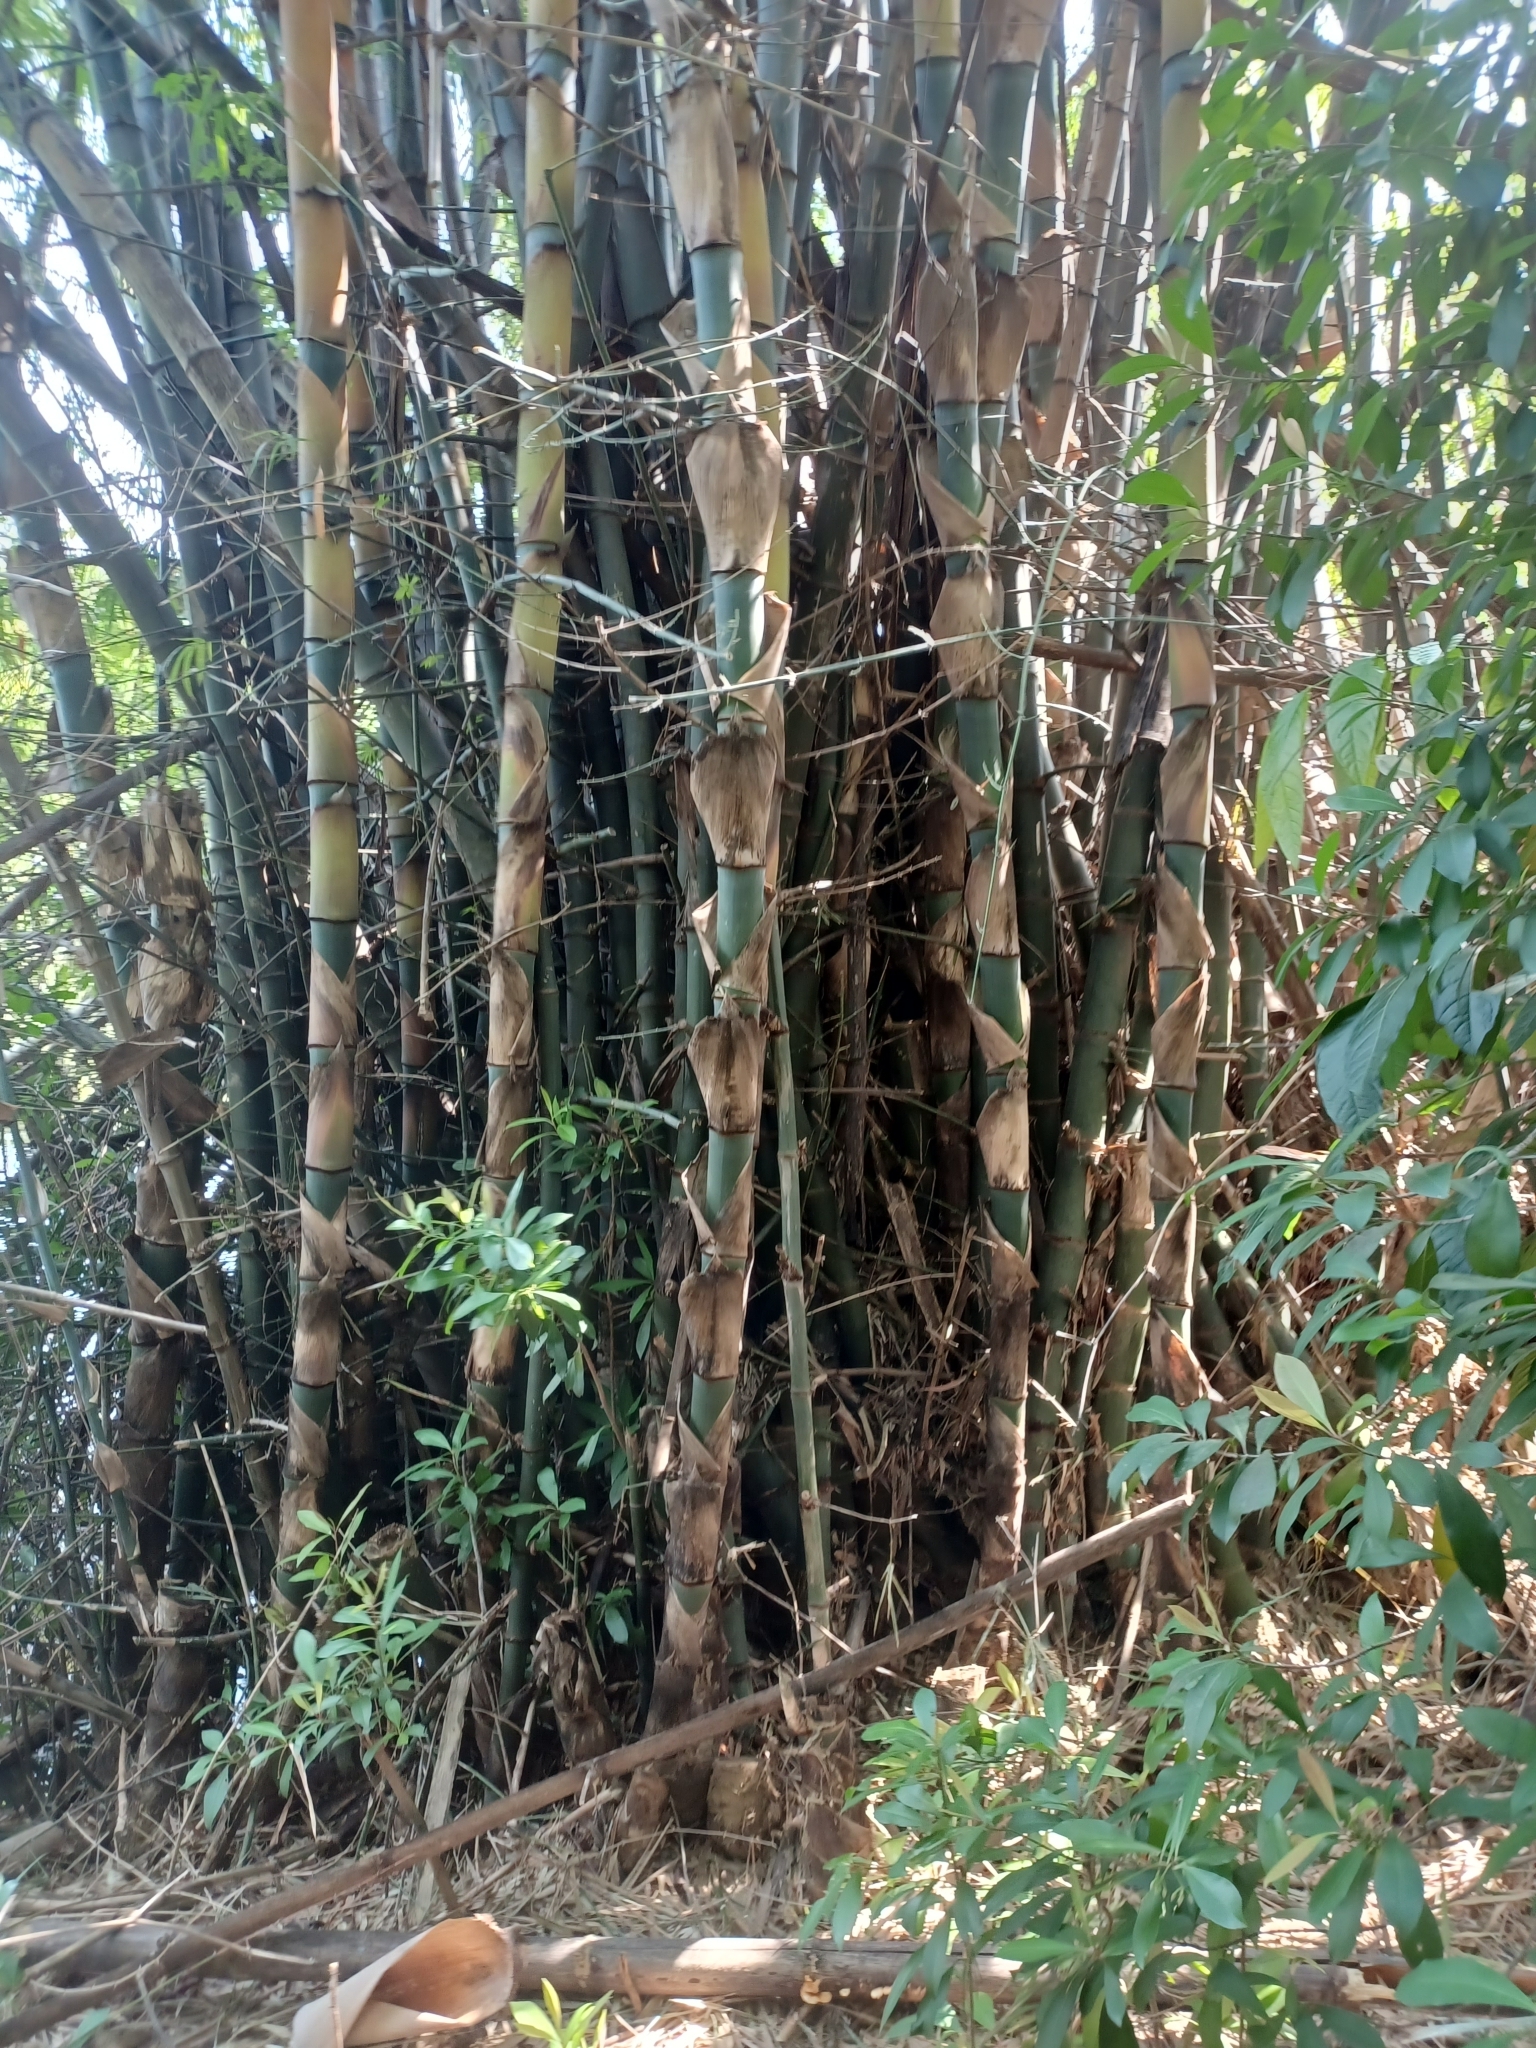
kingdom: Plantae
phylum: Tracheophyta
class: Liliopsida
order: Poales
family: Poaceae
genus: Bambusa
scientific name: Bambusa spinosa
